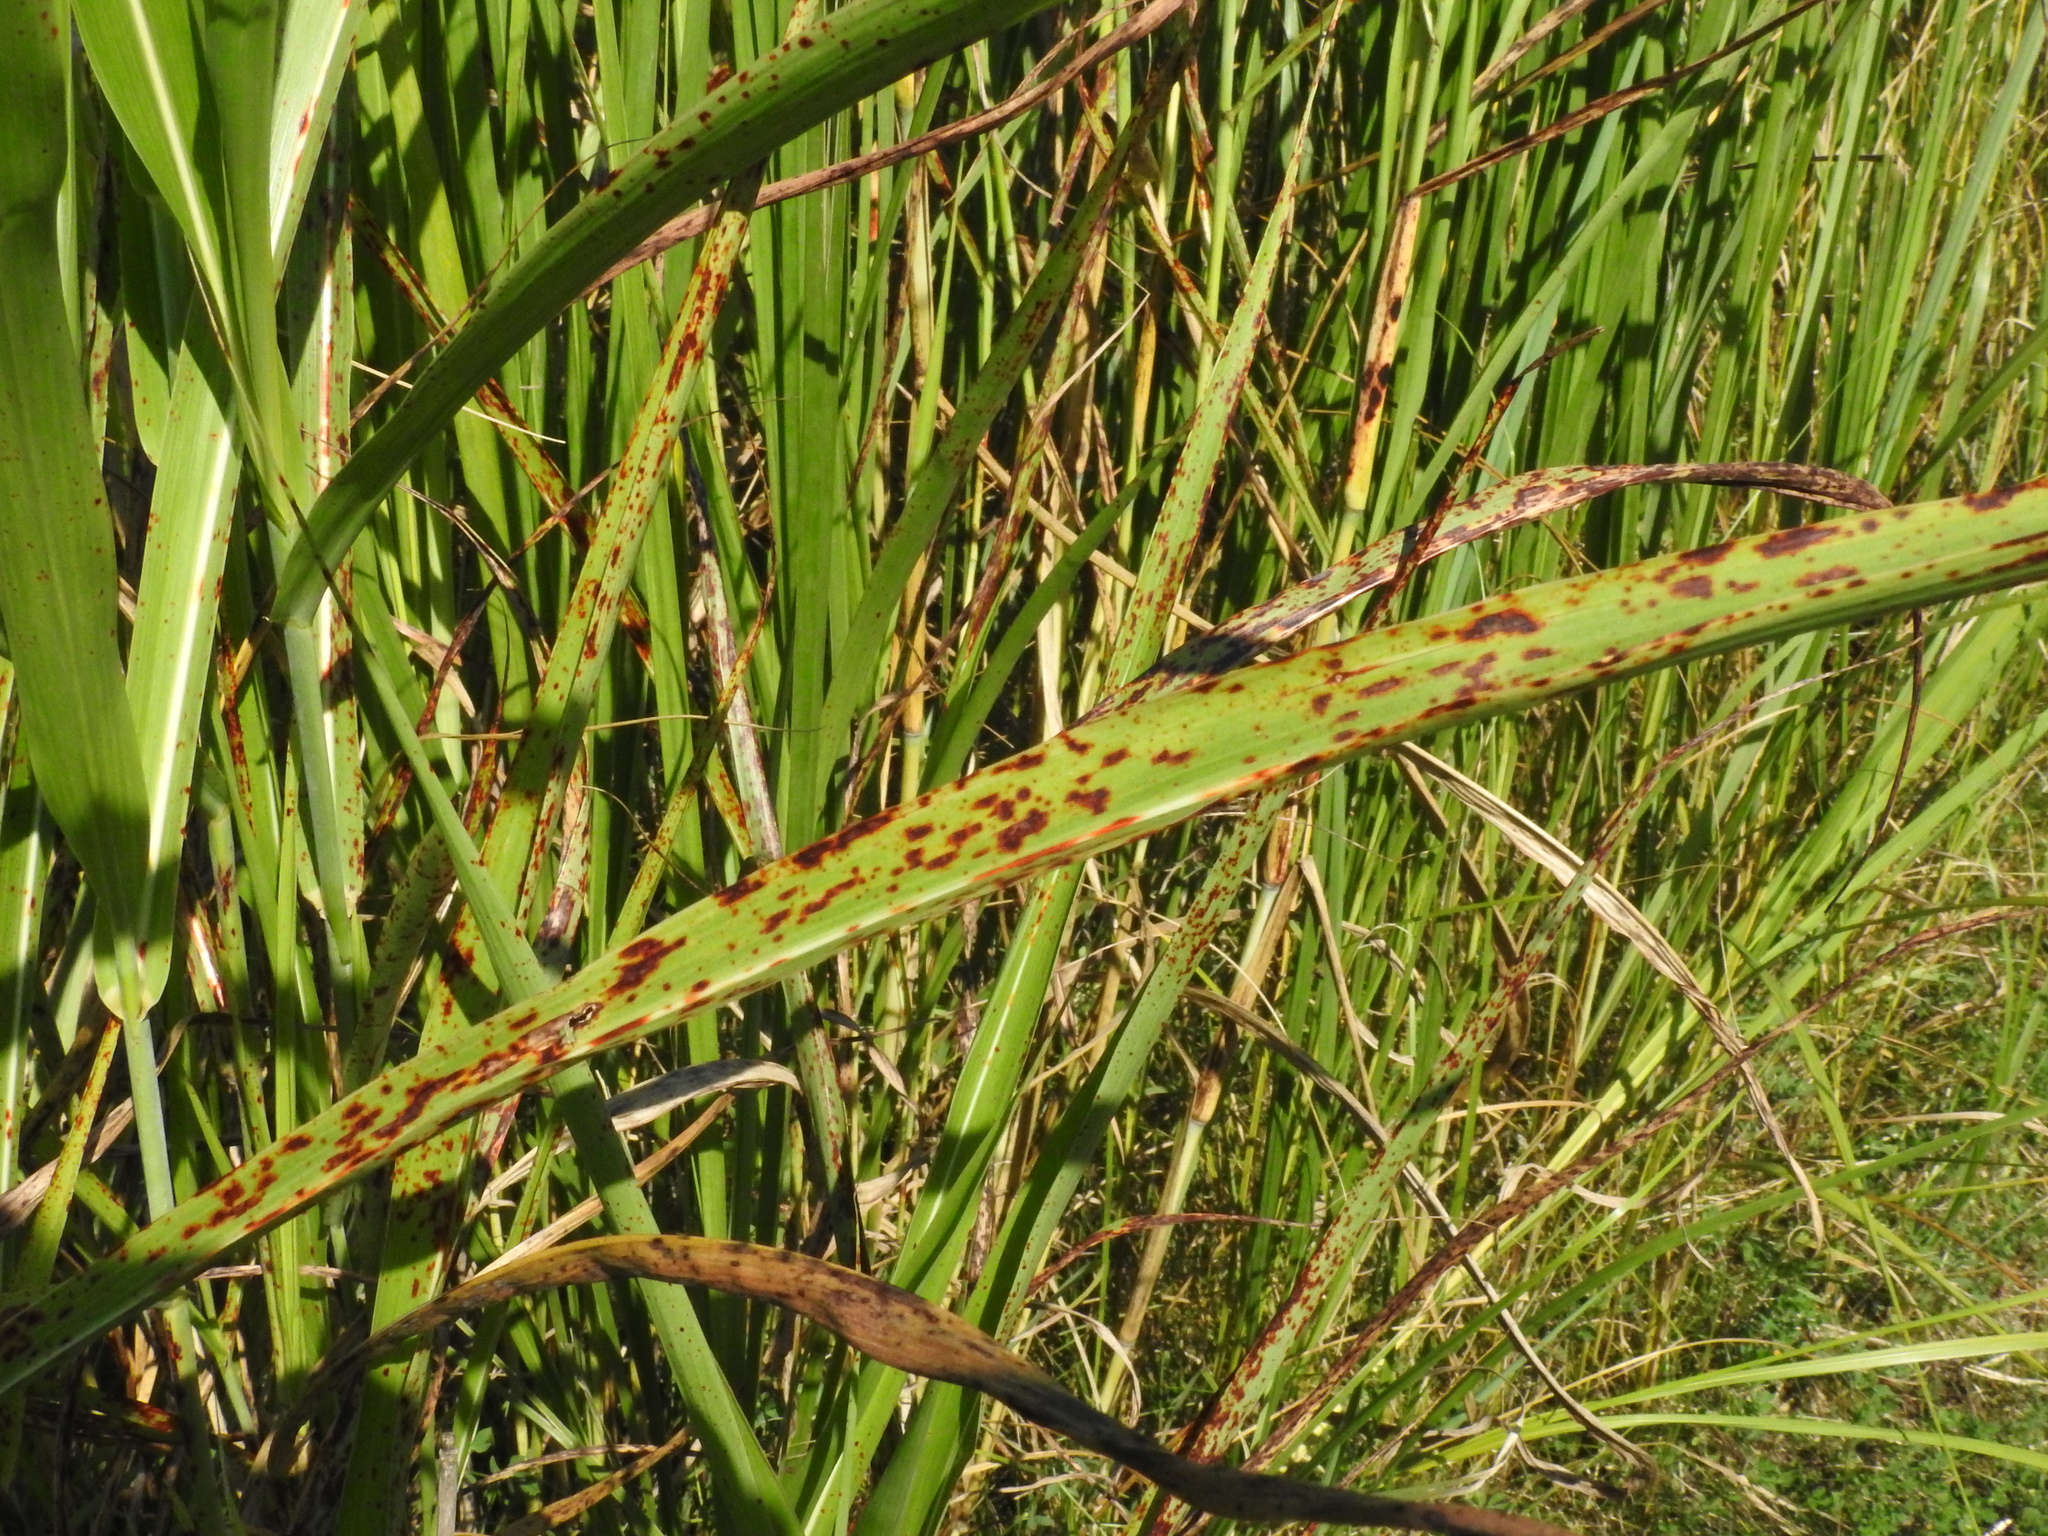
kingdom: Bacteria
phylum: Proteobacteria
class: Gammaproteobacteria
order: Xanthomonadales
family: Xanthomonadaceae
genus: Xanthomonas
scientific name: Xanthomonas vasicola
